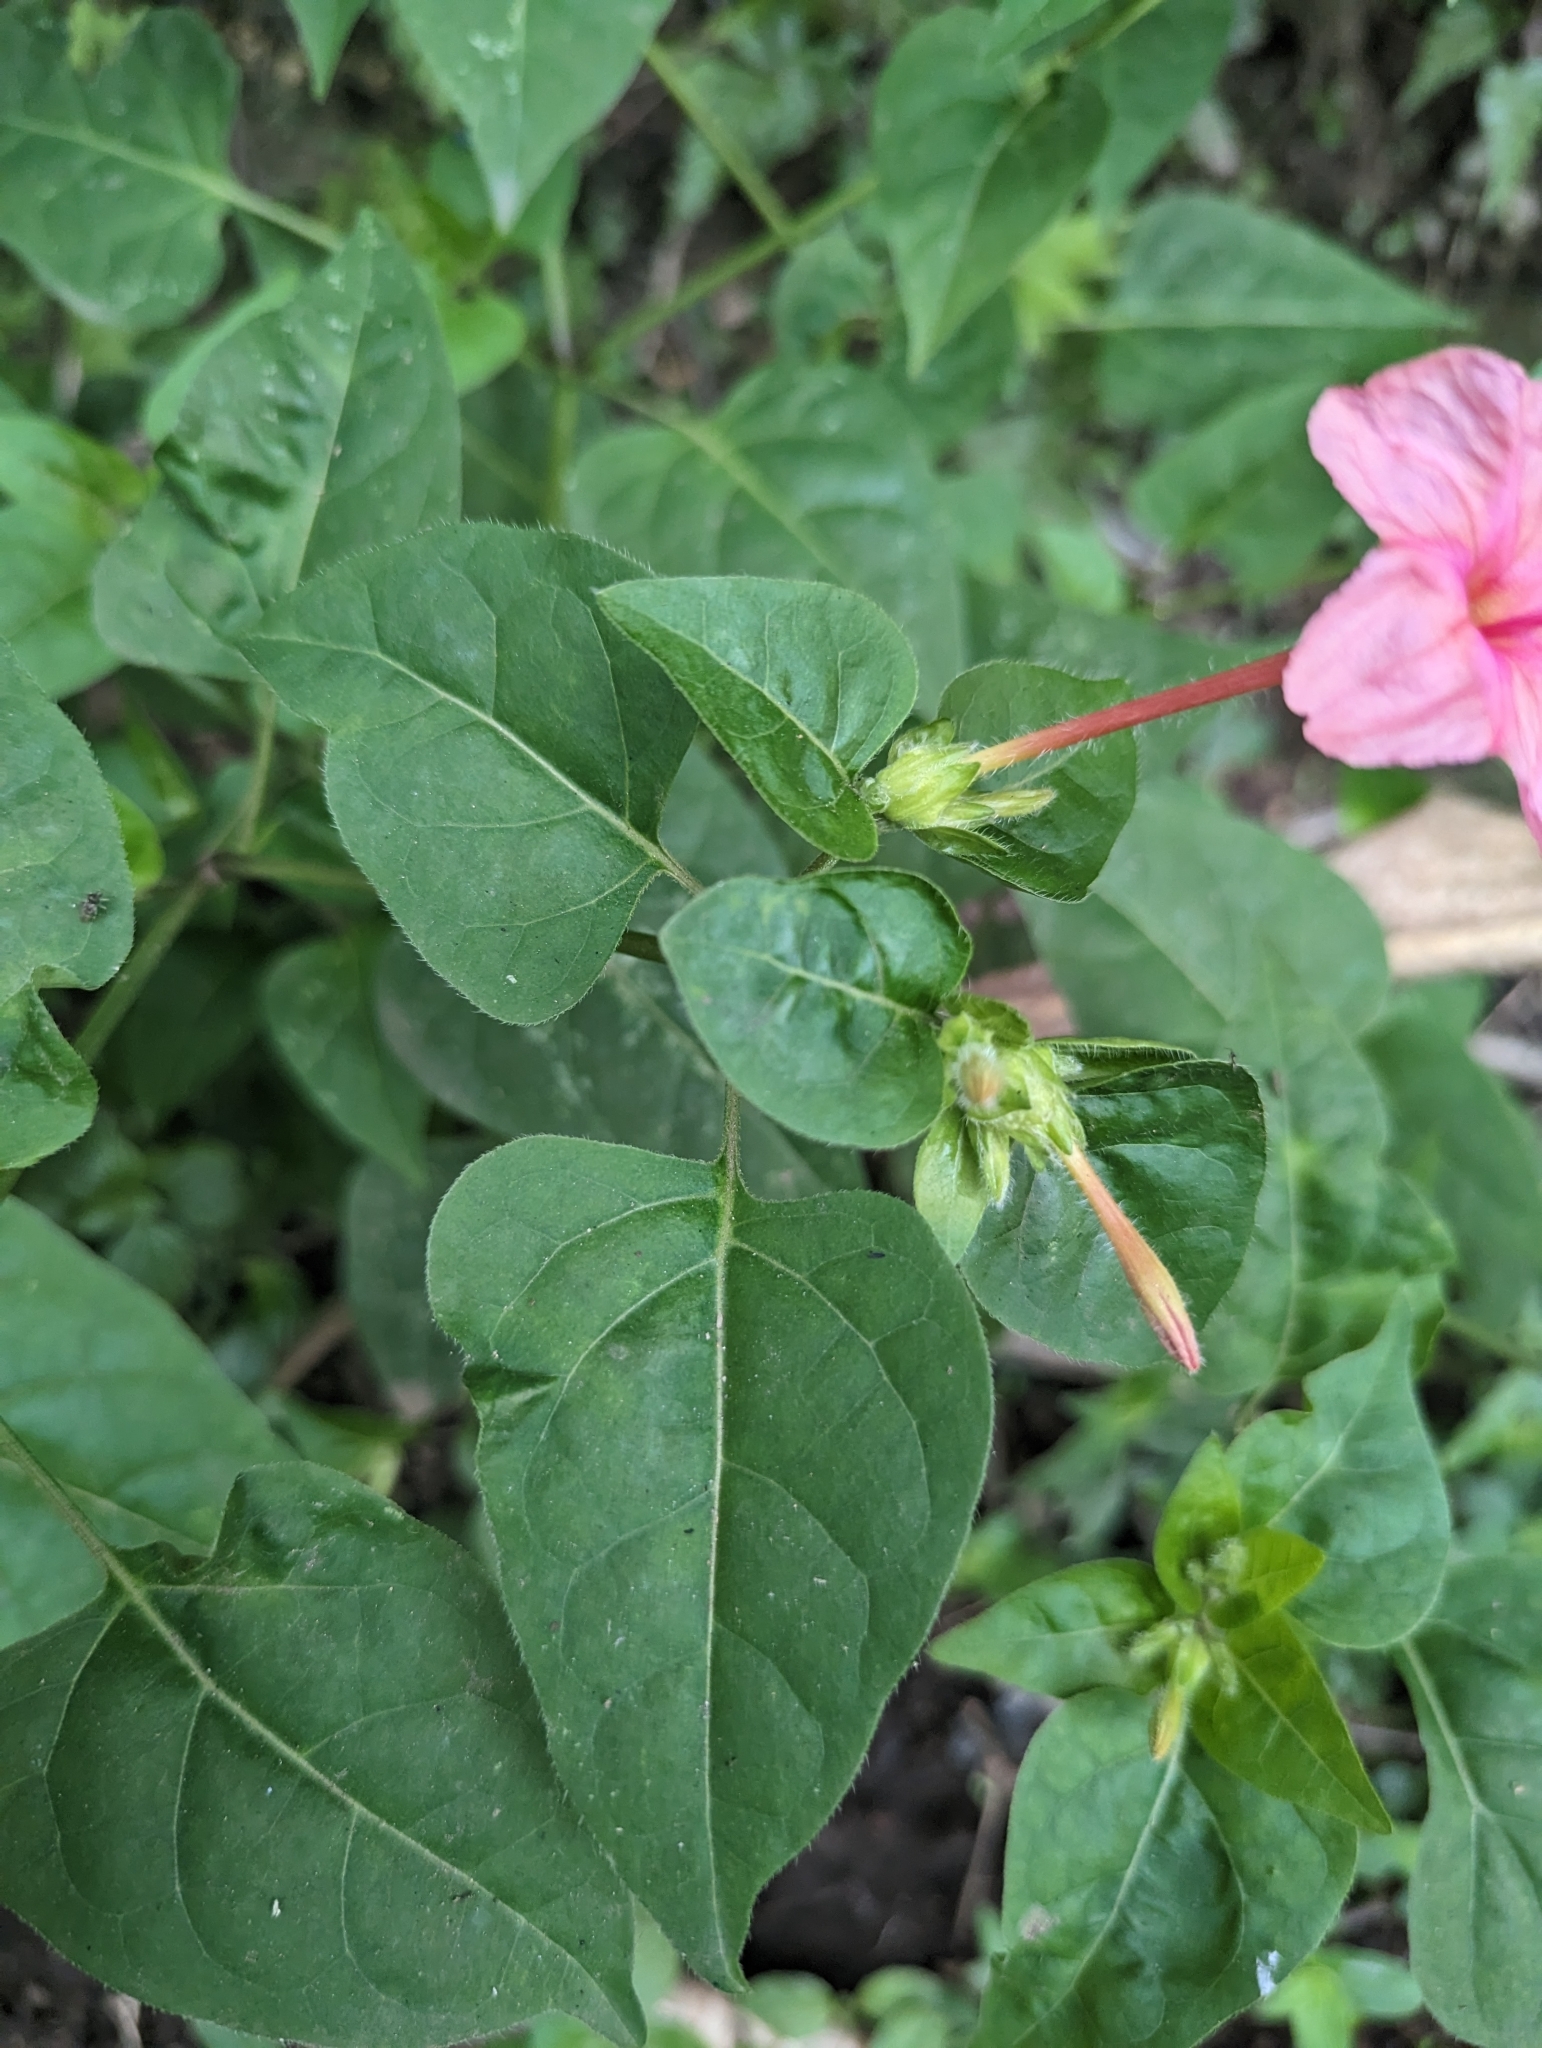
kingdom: Plantae
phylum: Tracheophyta
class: Magnoliopsida
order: Caryophyllales
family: Nyctaginaceae
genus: Mirabilis
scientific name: Mirabilis jalapa
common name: Marvel-of-peru
